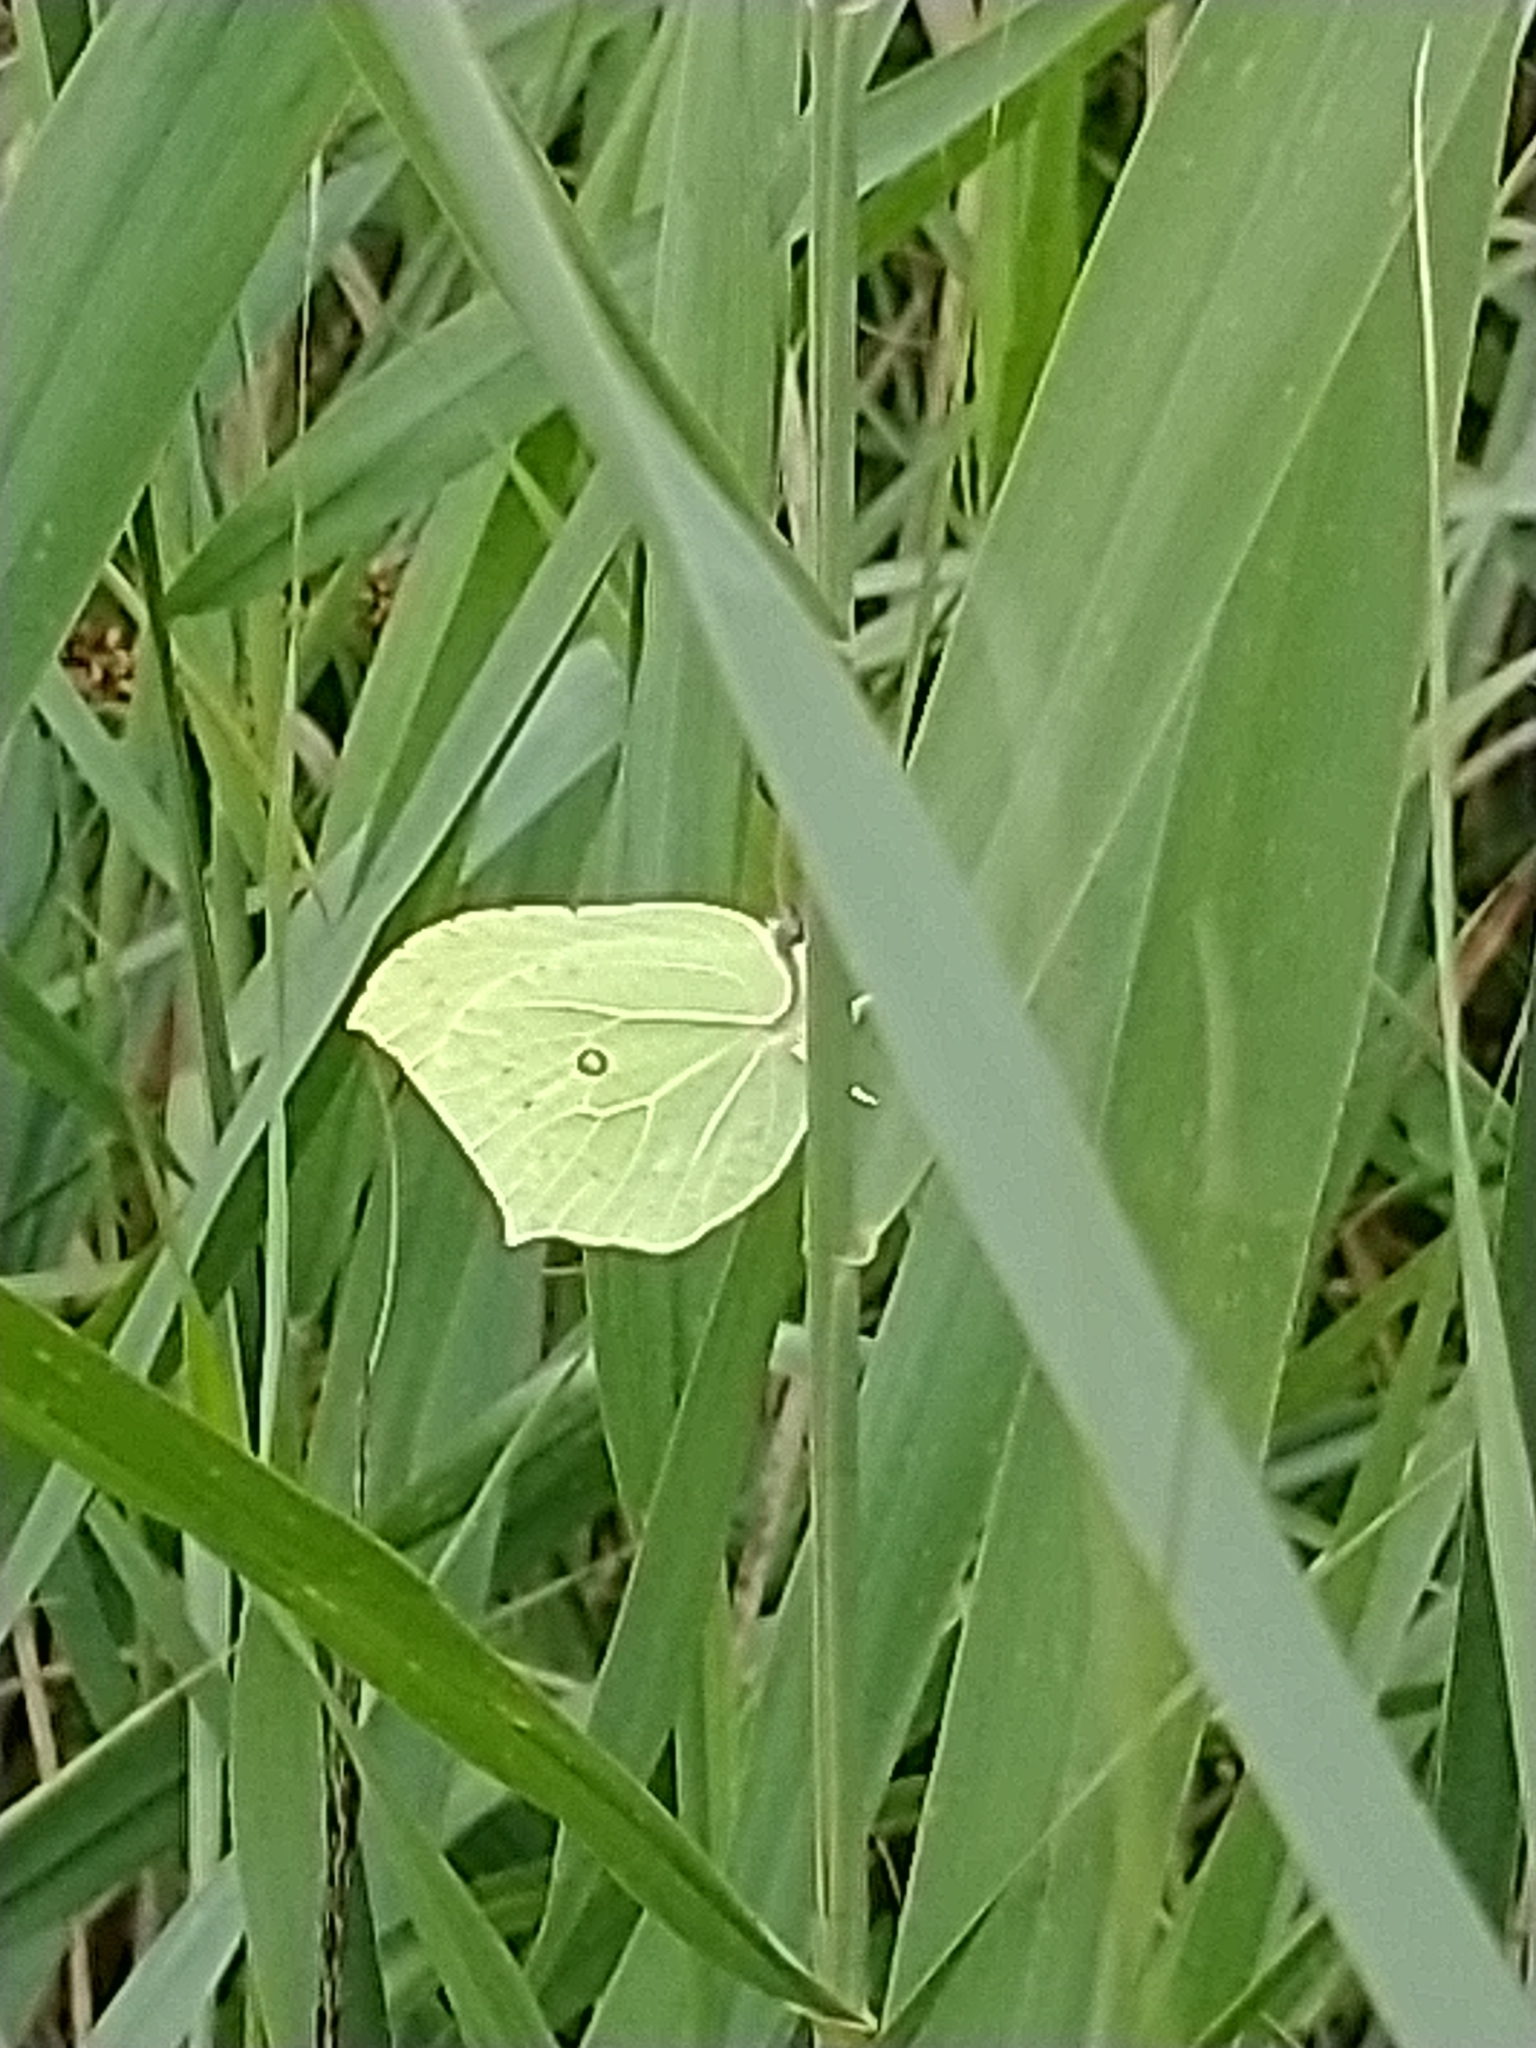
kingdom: Animalia
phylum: Arthropoda
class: Insecta
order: Lepidoptera
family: Pieridae
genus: Gonepteryx
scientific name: Gonepteryx rhamni
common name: Brimstone
